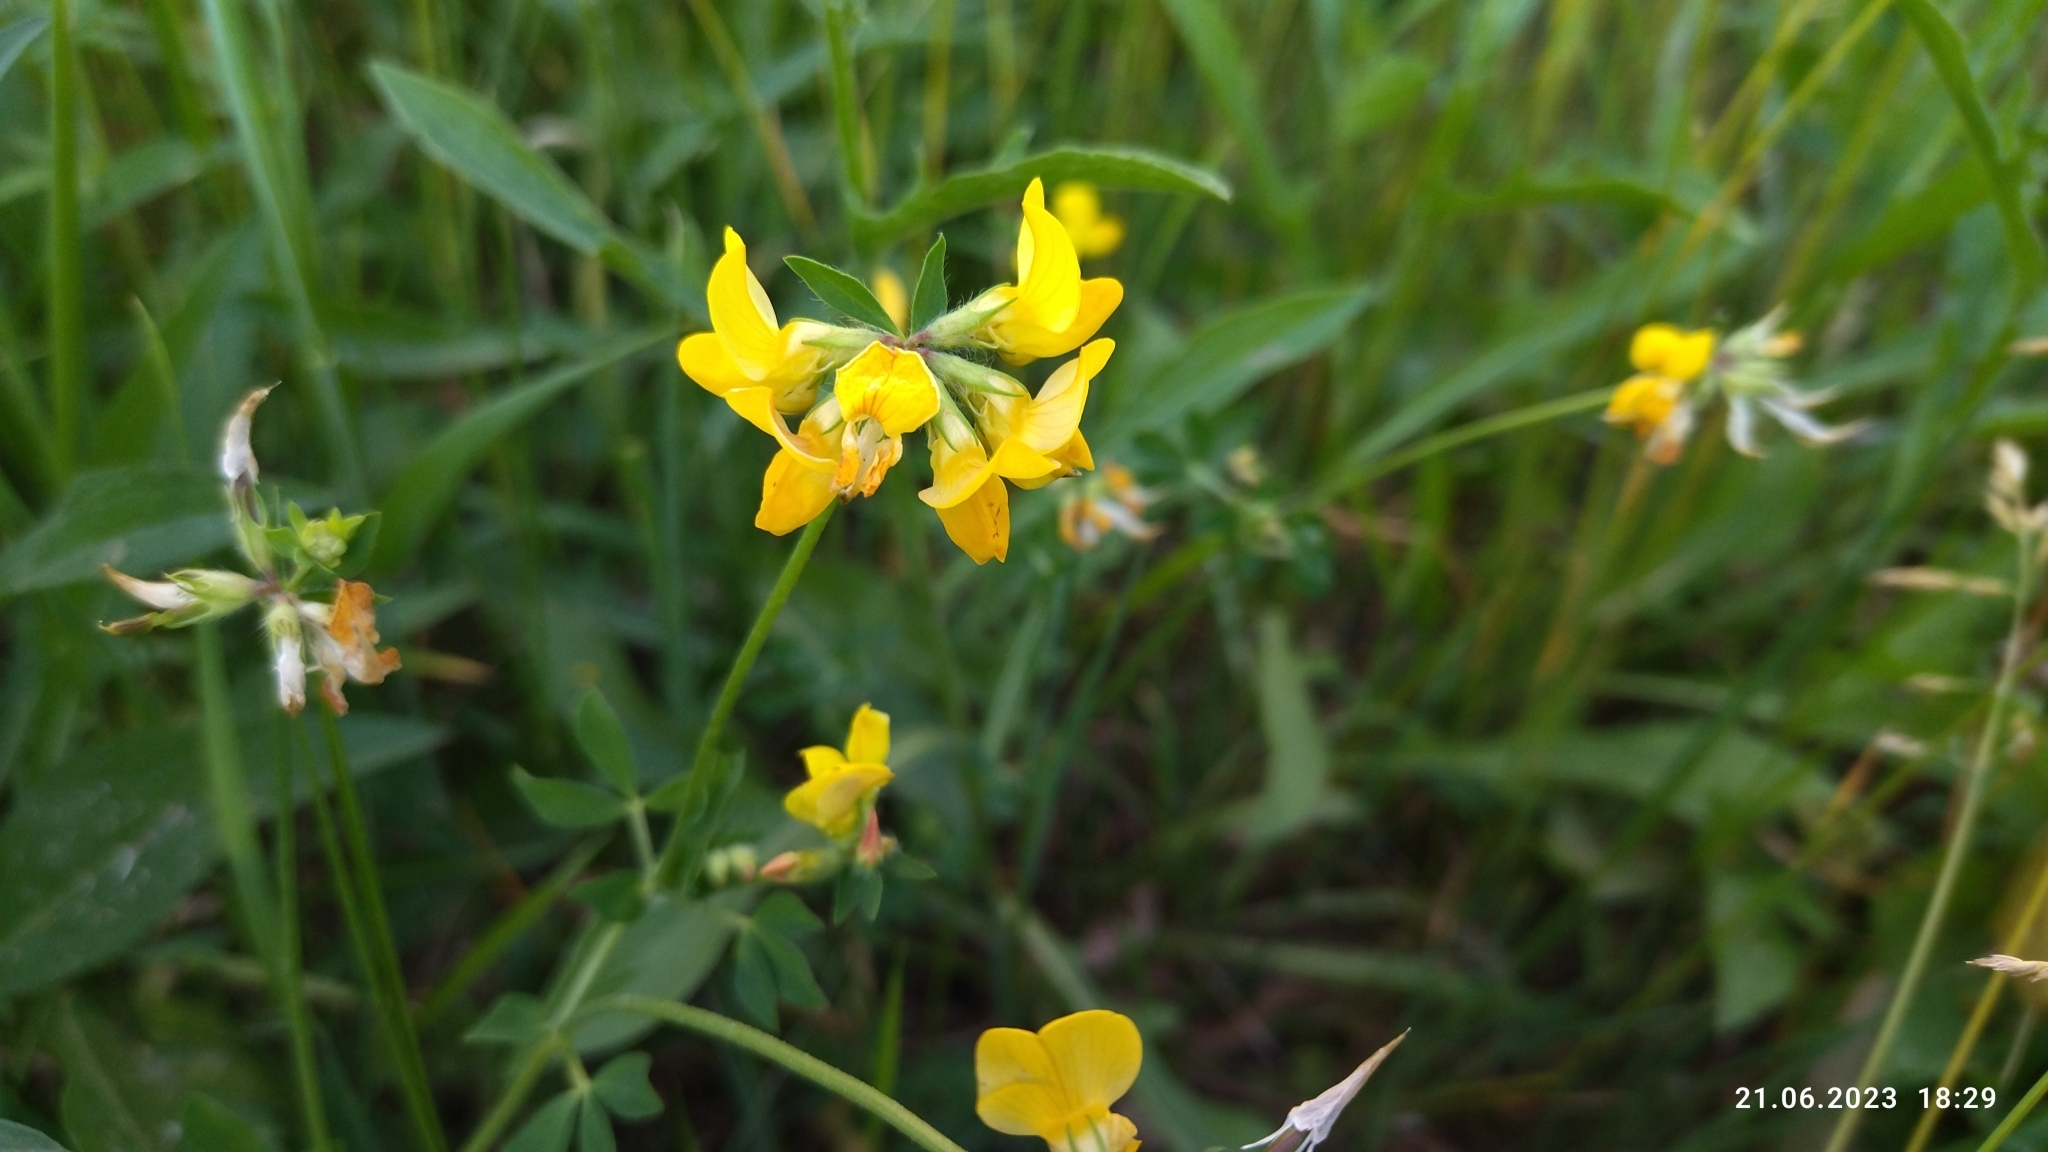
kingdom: Plantae
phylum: Tracheophyta
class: Magnoliopsida
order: Fabales
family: Fabaceae
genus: Lotus
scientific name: Lotus corniculatus
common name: Common bird's-foot-trefoil
